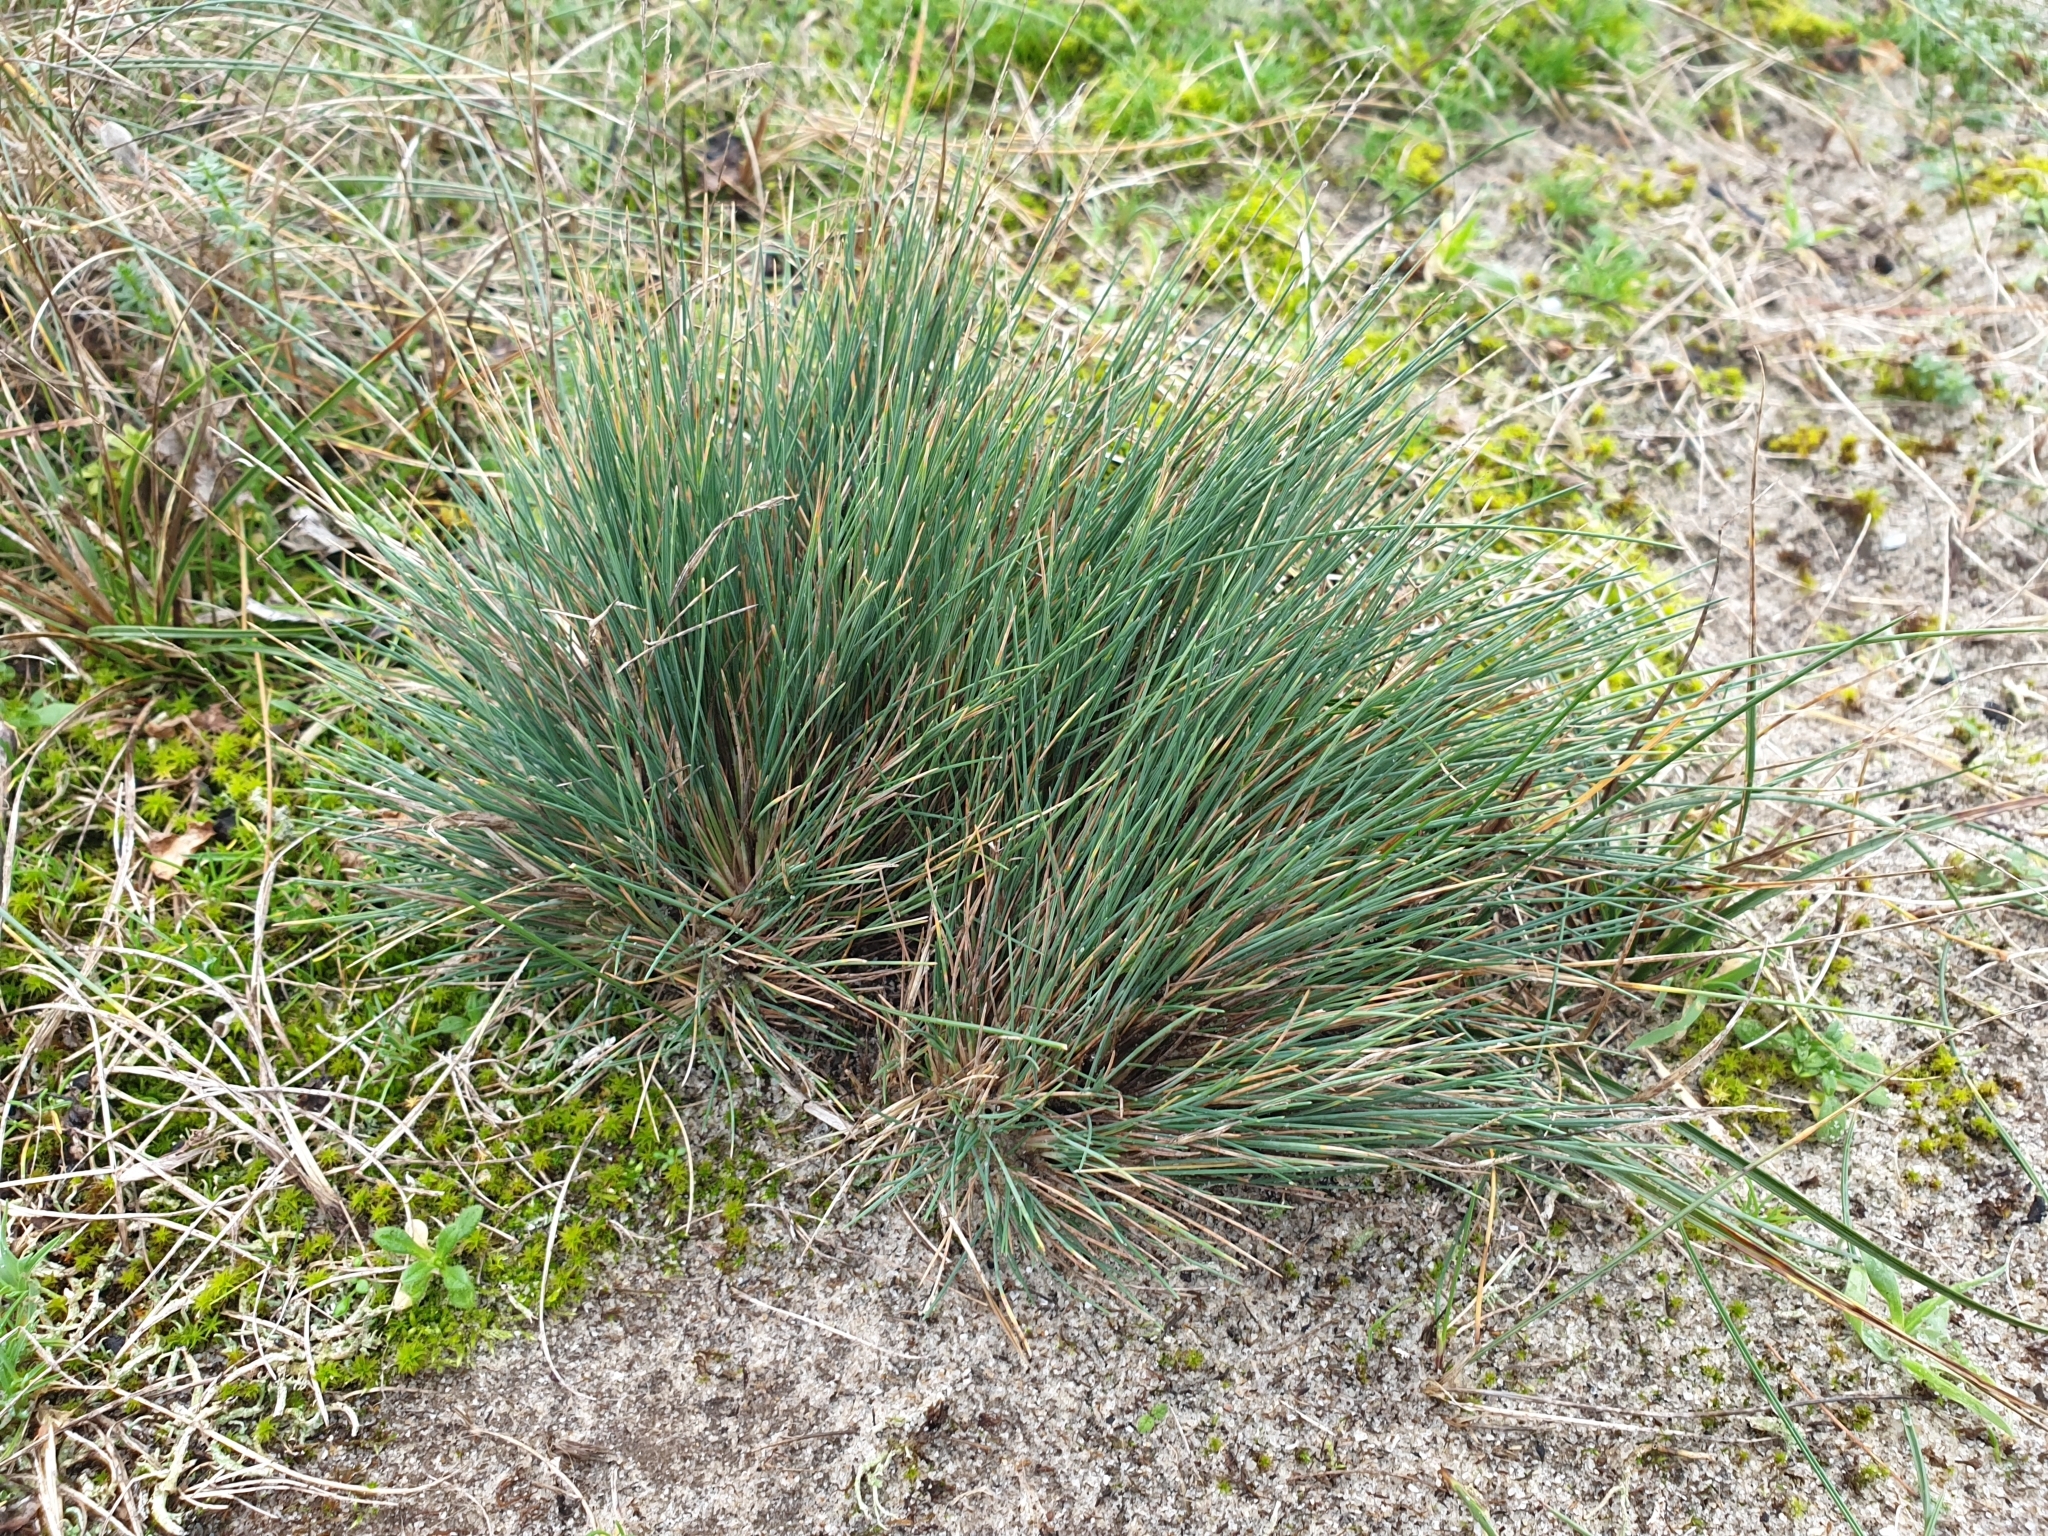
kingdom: Plantae
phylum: Tracheophyta
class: Liliopsida
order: Poales
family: Poaceae
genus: Corynephorus
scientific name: Corynephorus canescens
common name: Grey hair-grass
